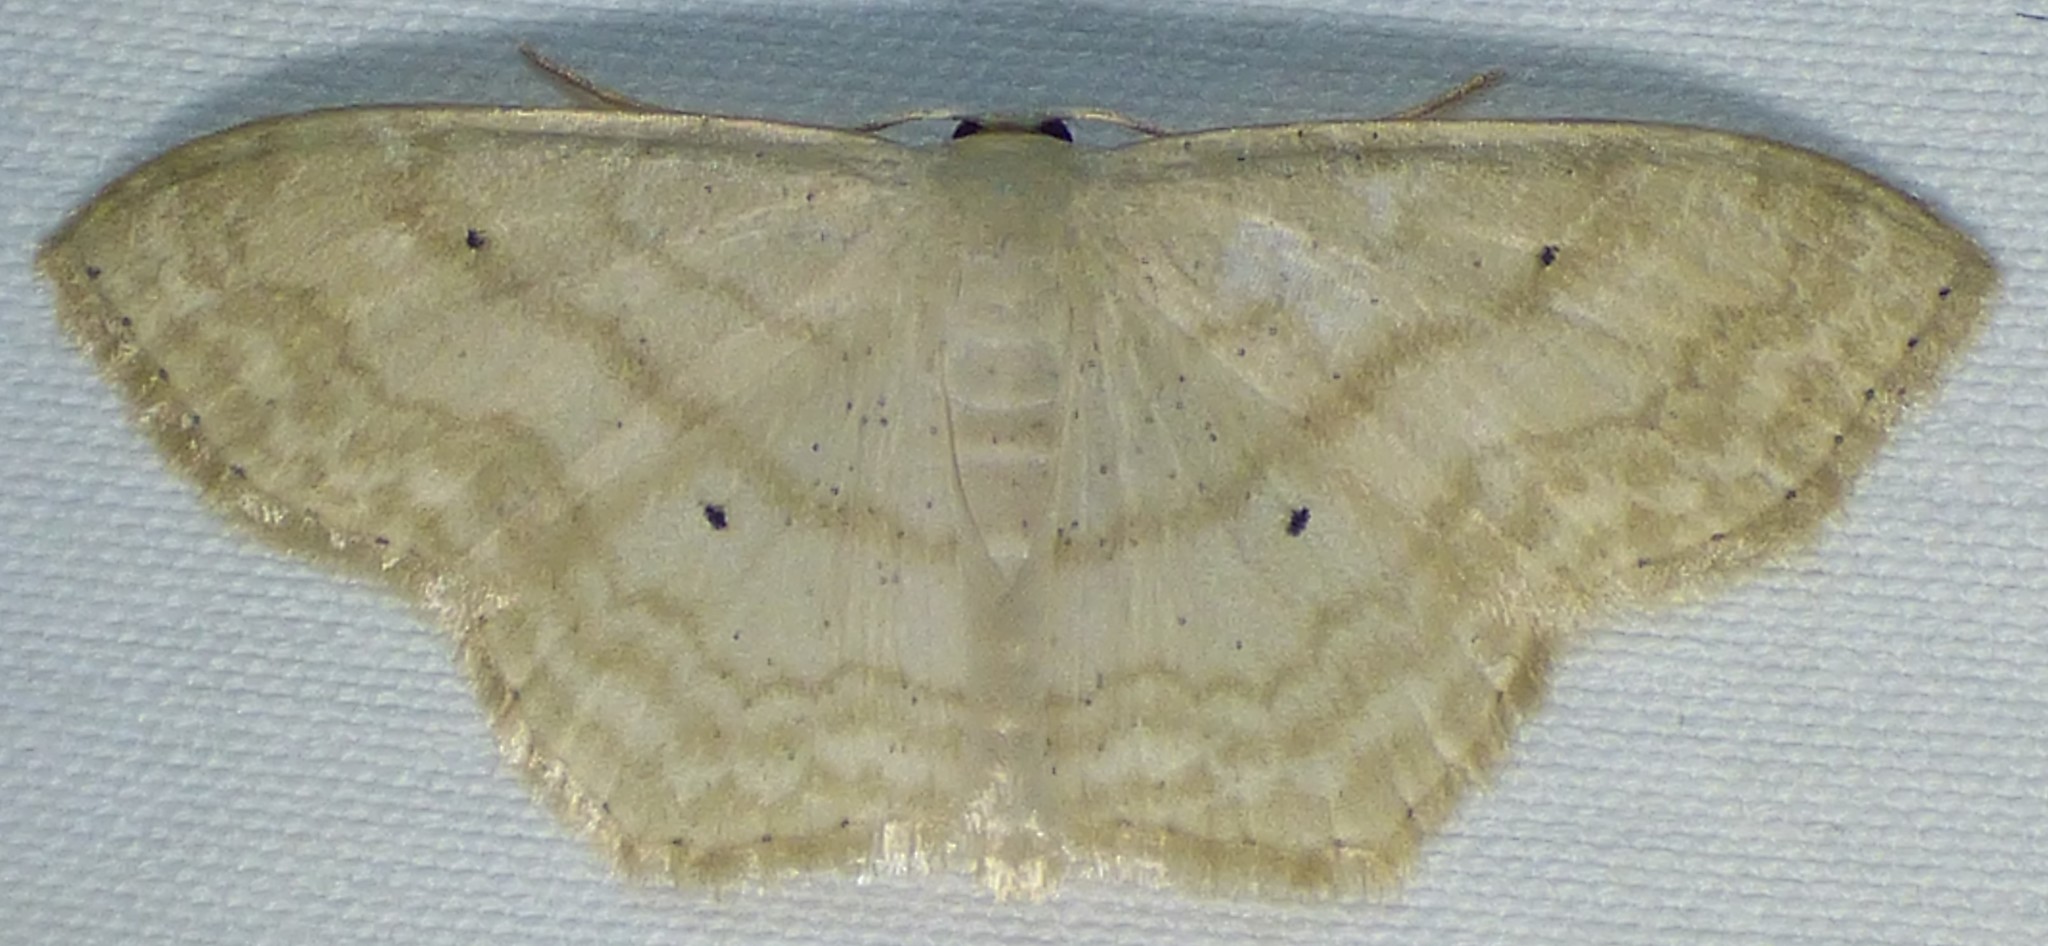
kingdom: Animalia
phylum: Arthropoda
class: Insecta
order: Lepidoptera
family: Geometridae
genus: Scopula
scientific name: Scopula limboundata
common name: Large lace border
